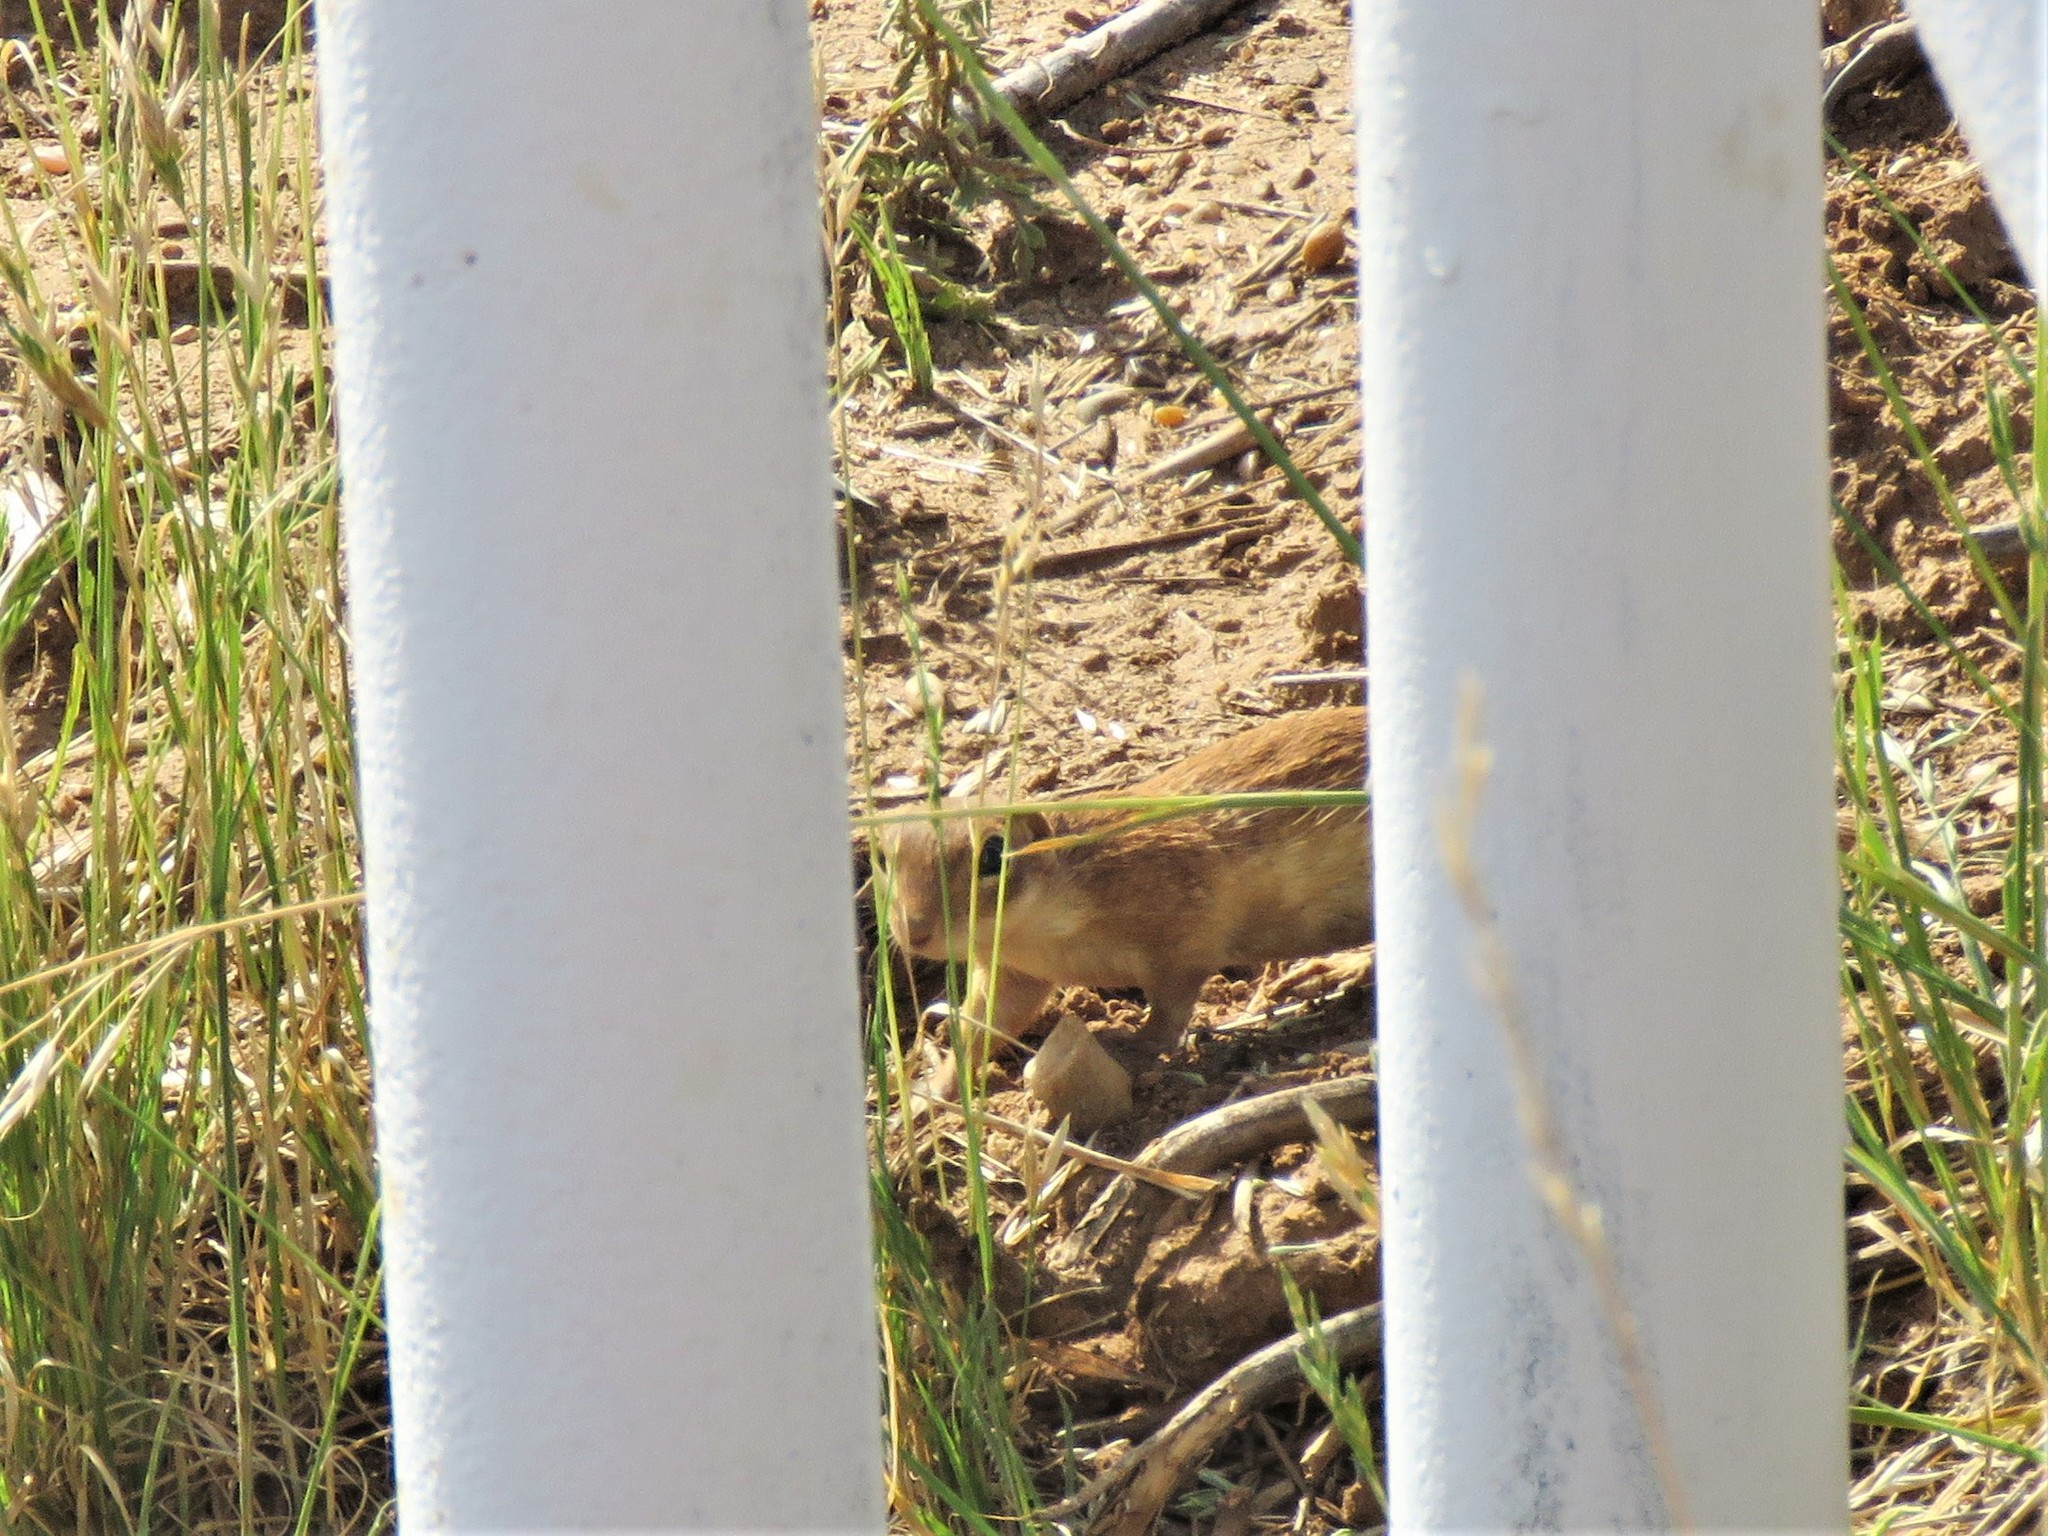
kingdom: Animalia
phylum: Chordata
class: Mammalia
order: Rodentia
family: Sciuridae
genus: Xerospermophilus
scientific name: Xerospermophilus spilosoma
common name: Spotted ground squirrel
